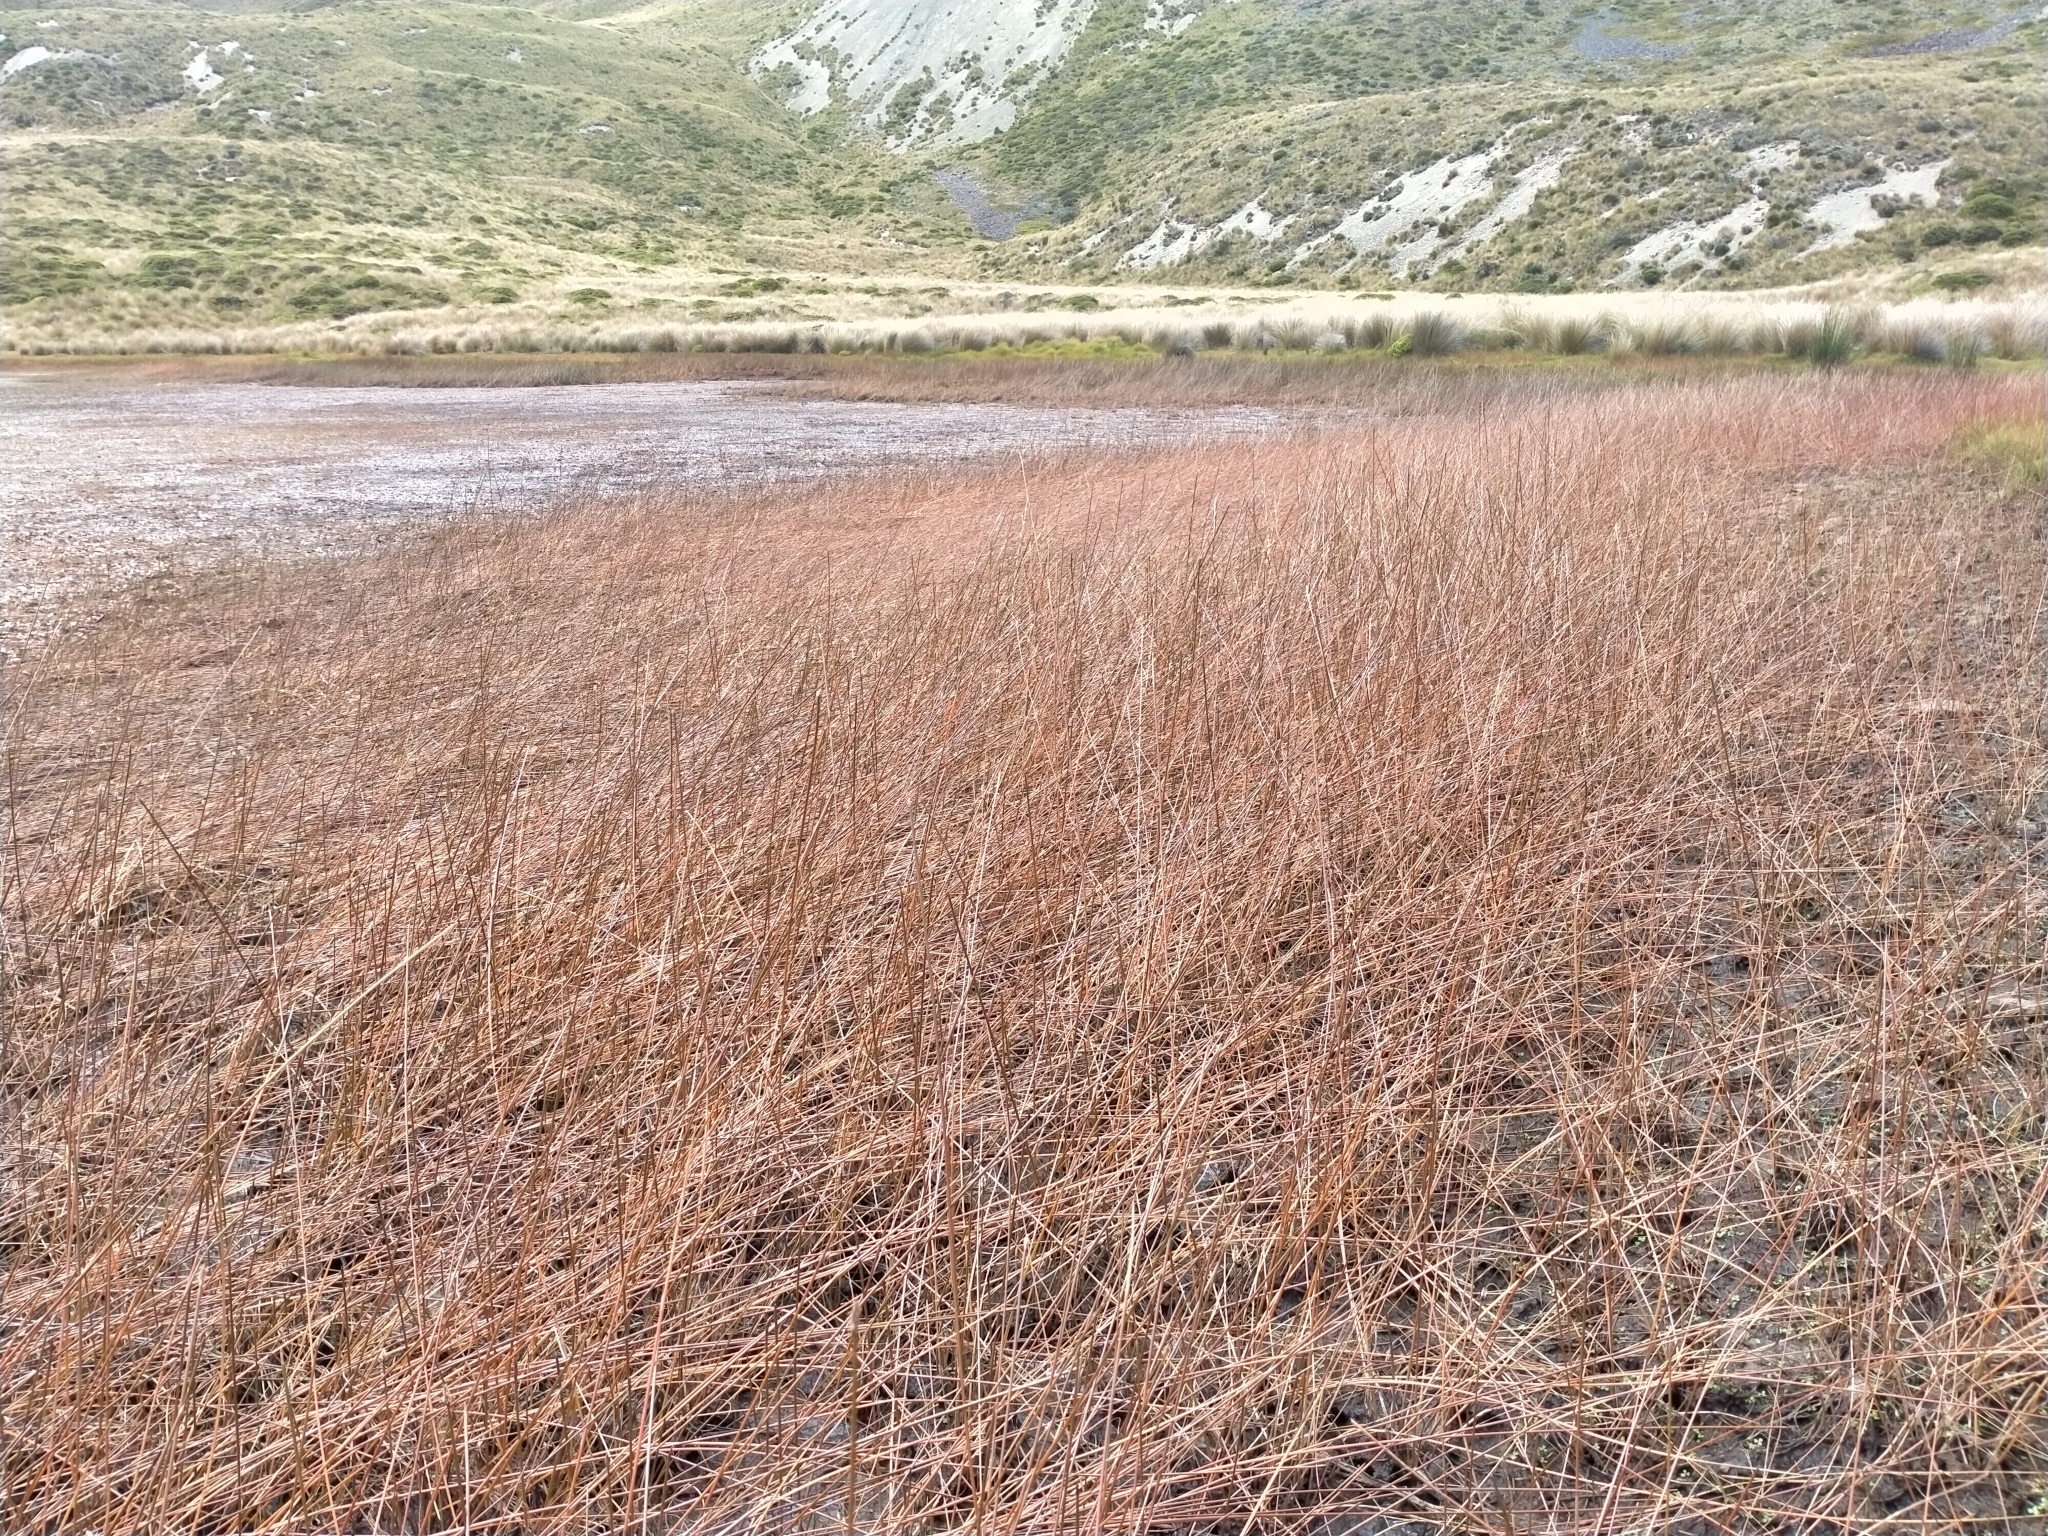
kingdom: Plantae
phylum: Tracheophyta
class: Liliopsida
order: Poales
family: Cyperaceae
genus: Eleocharis
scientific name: Eleocharis acuta
